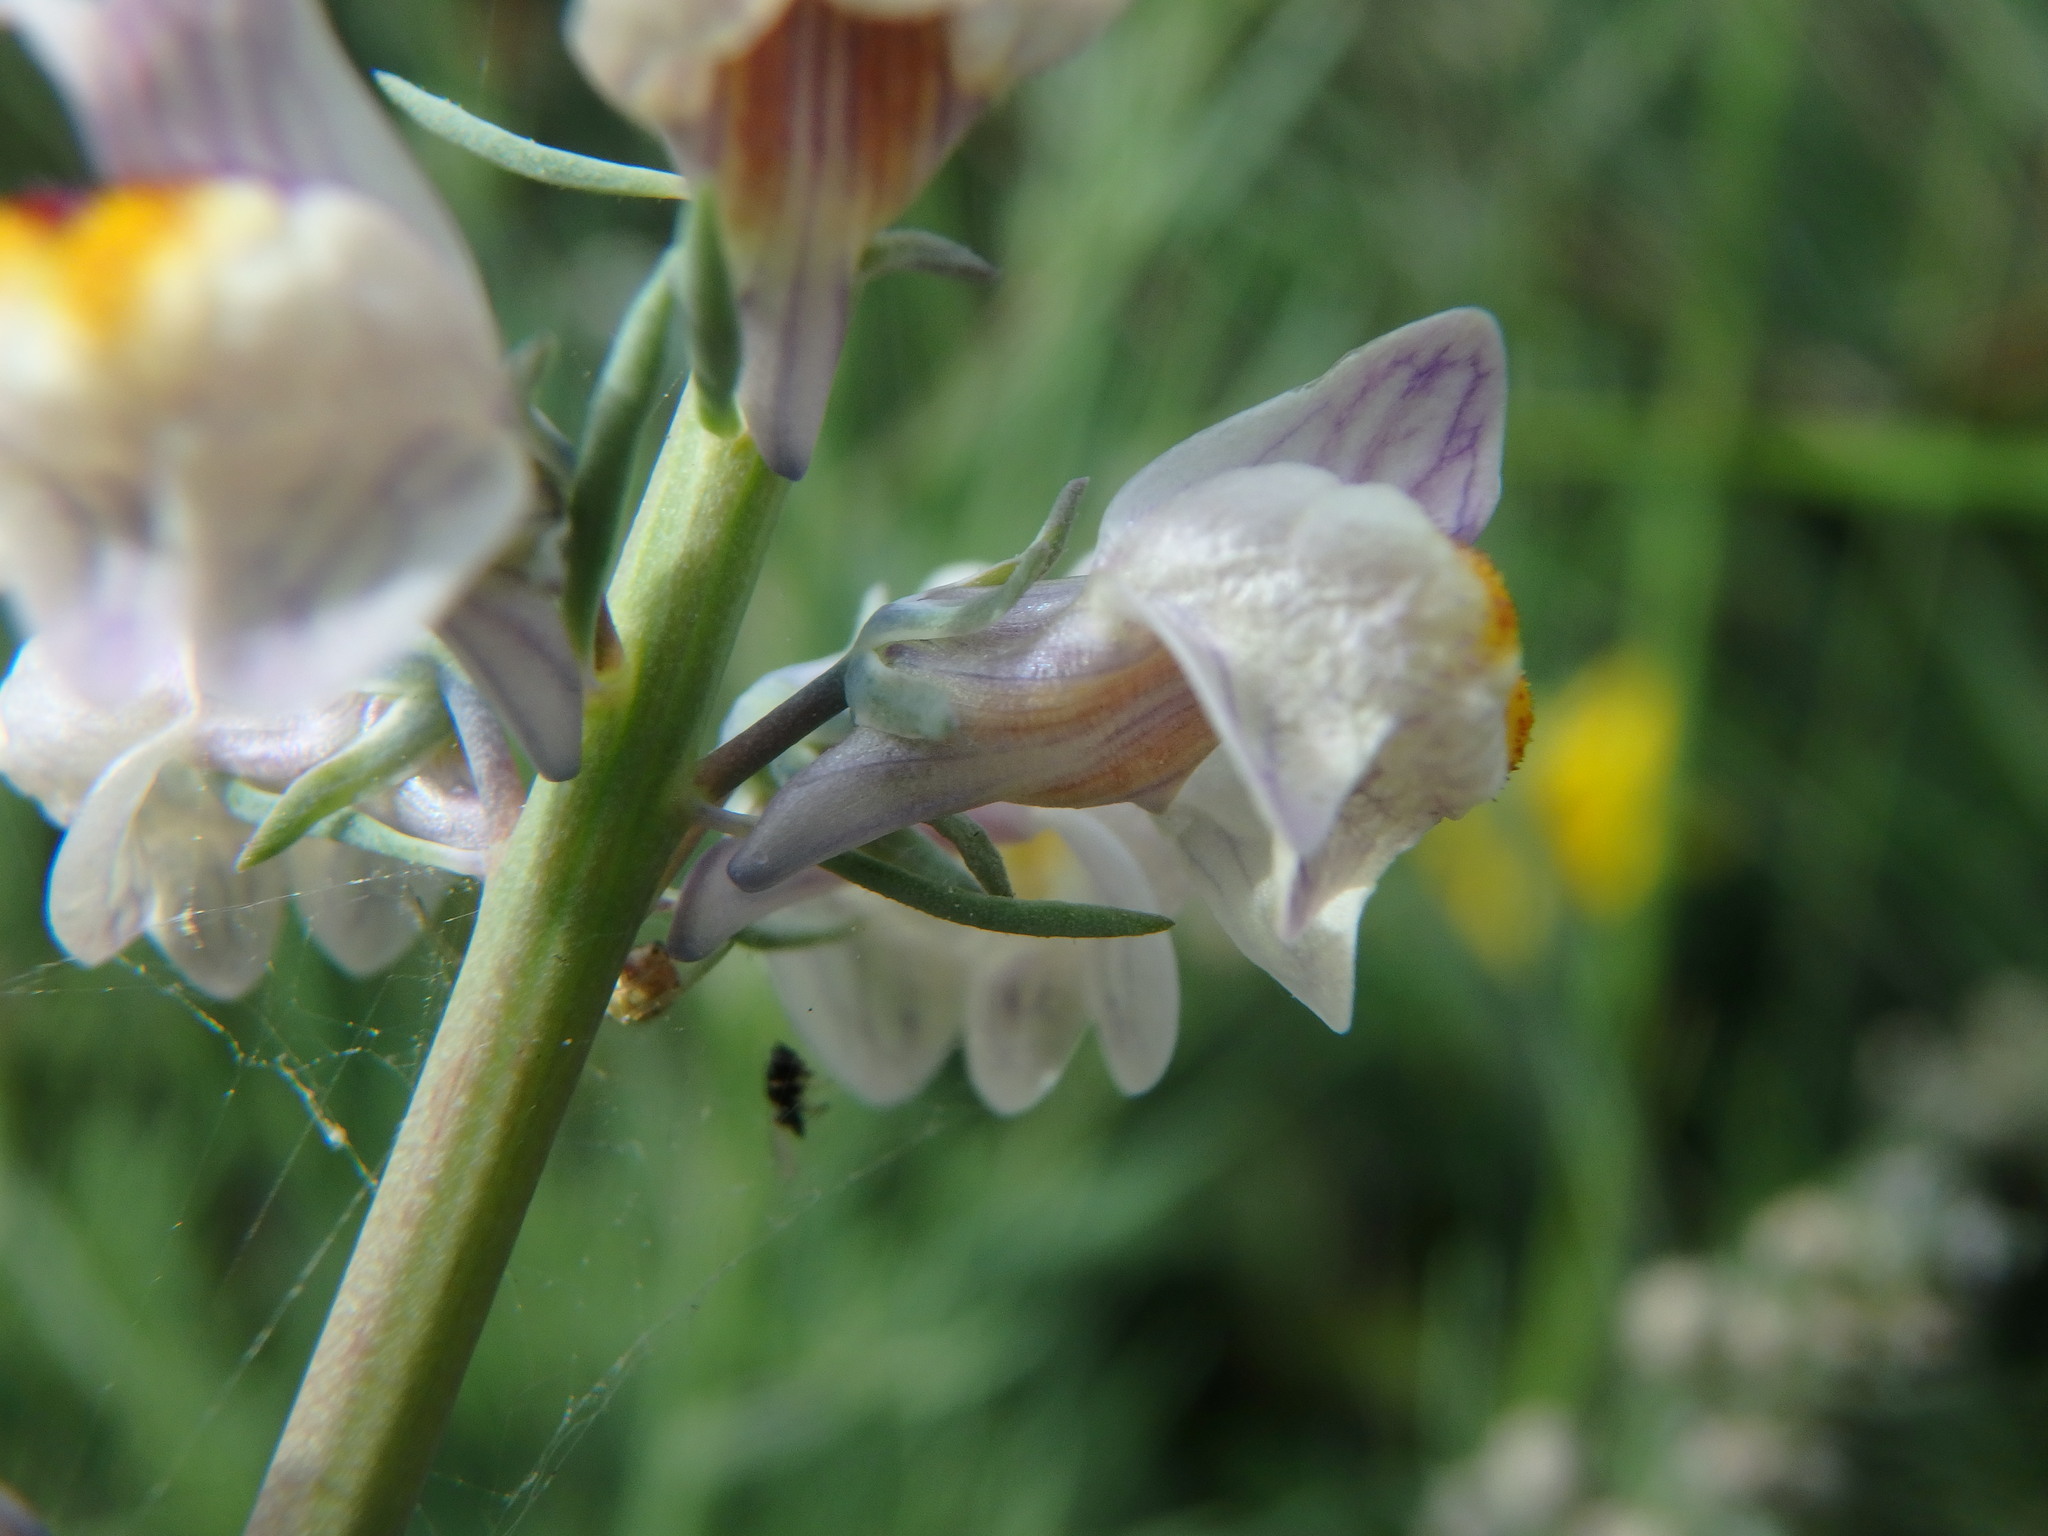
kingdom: Plantae
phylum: Tracheophyta
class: Magnoliopsida
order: Lamiales
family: Plantaginaceae
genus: Linaria
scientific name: Linaria repens
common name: Pale toadflax
